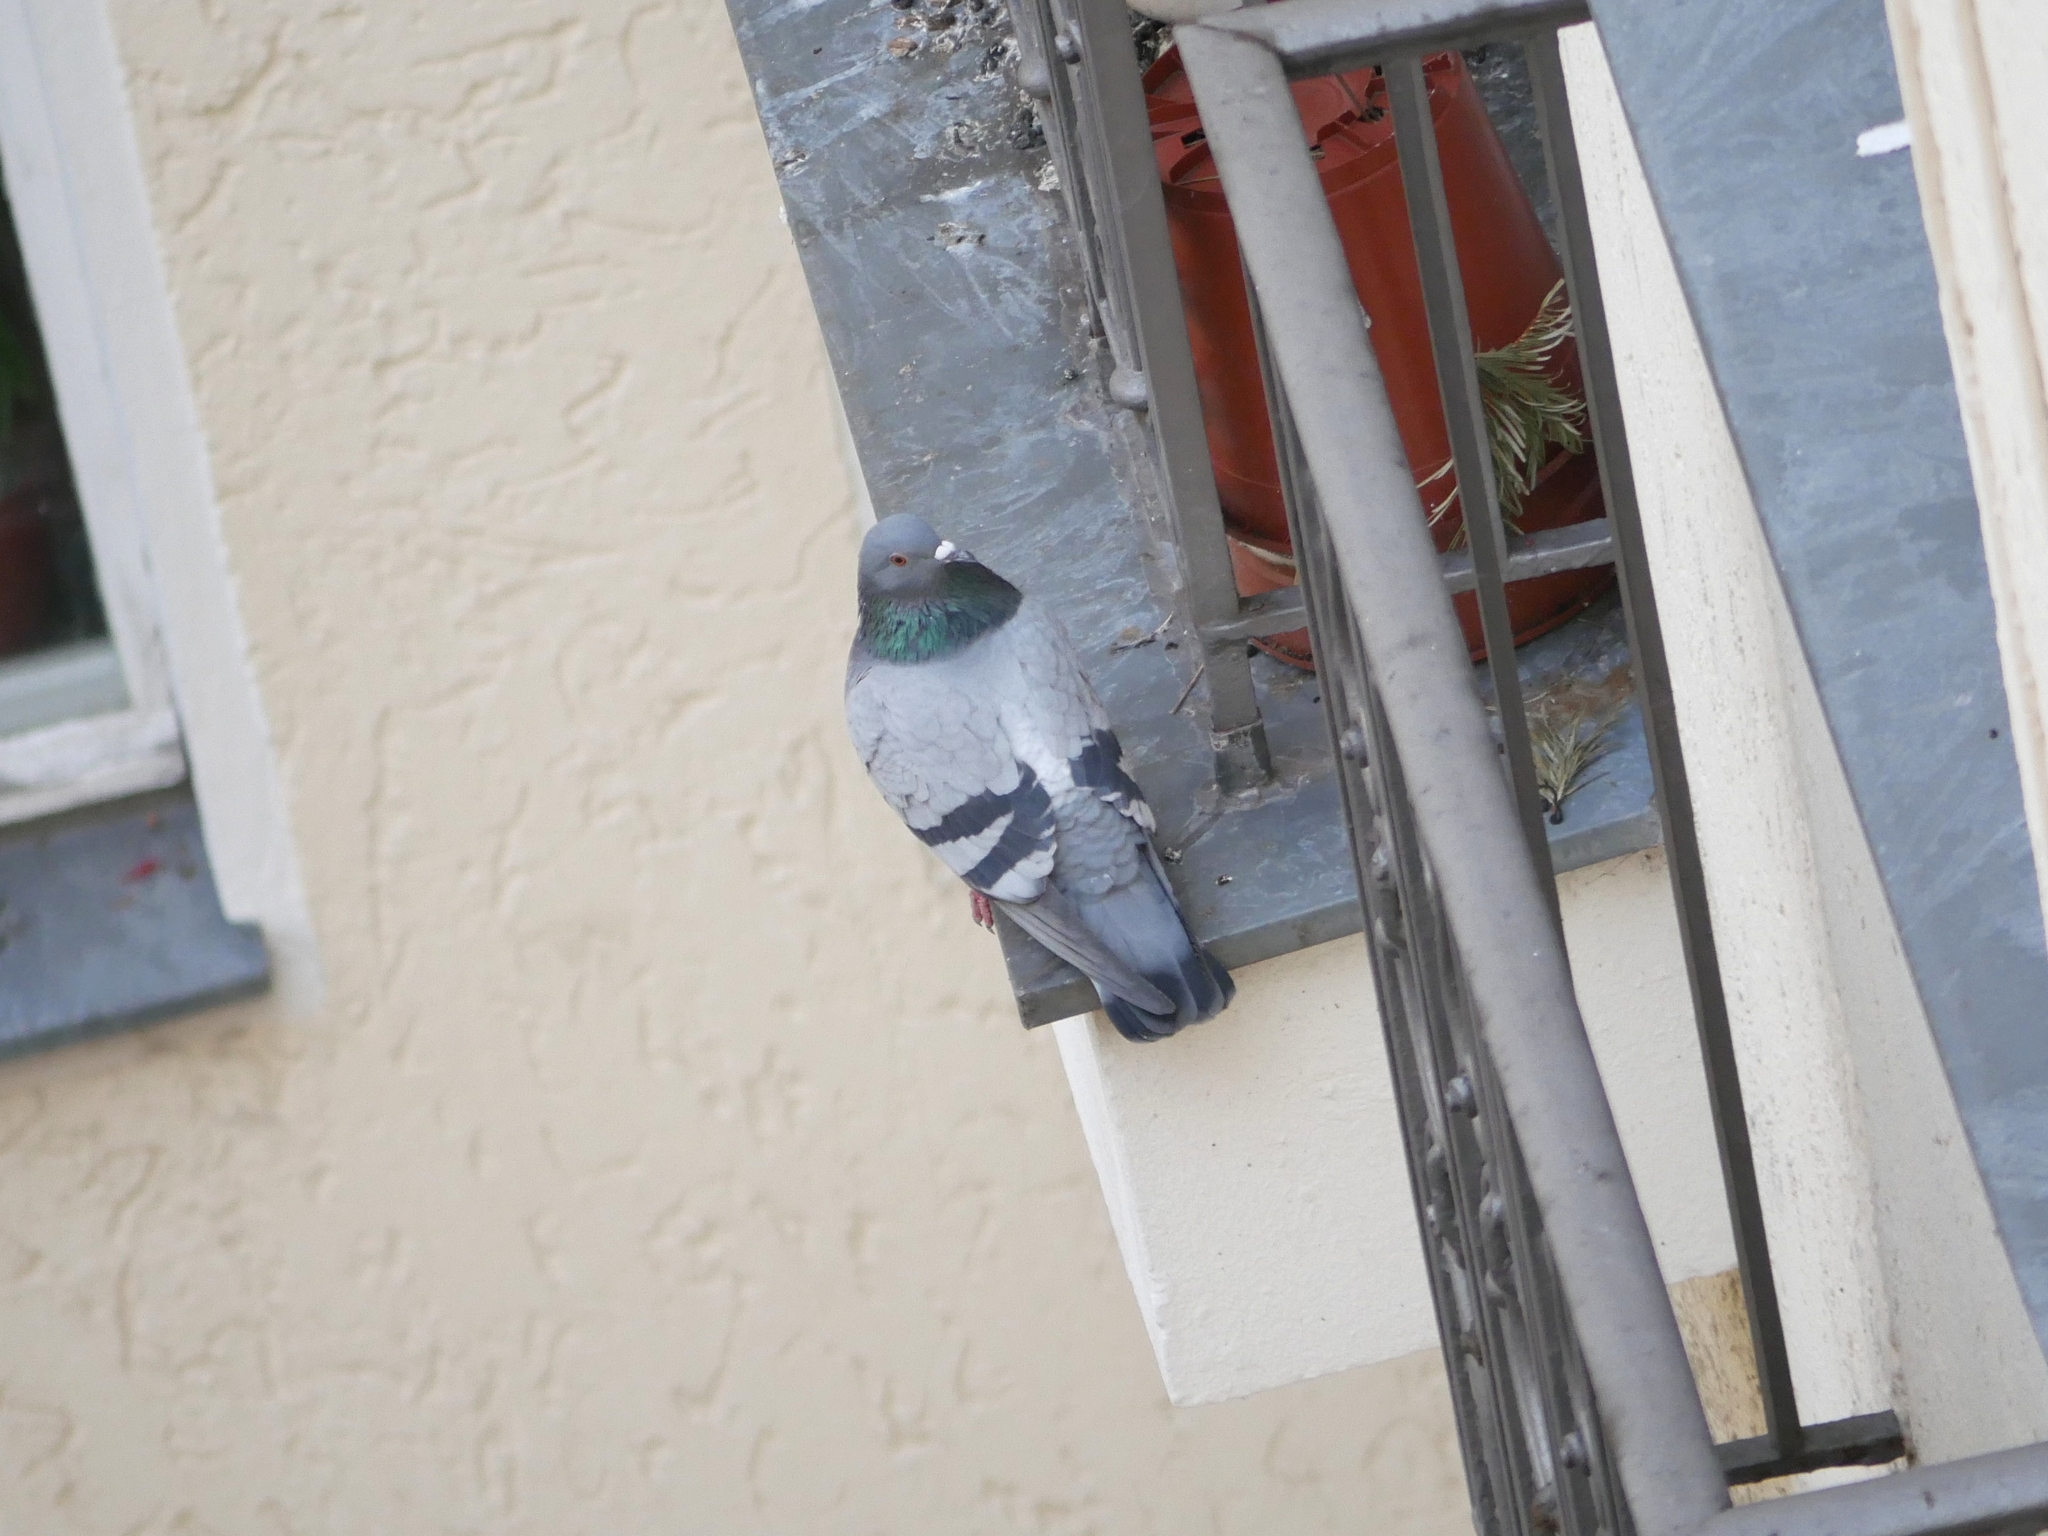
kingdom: Animalia
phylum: Chordata
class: Aves
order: Columbiformes
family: Columbidae
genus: Columba
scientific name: Columba livia
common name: Rock pigeon
